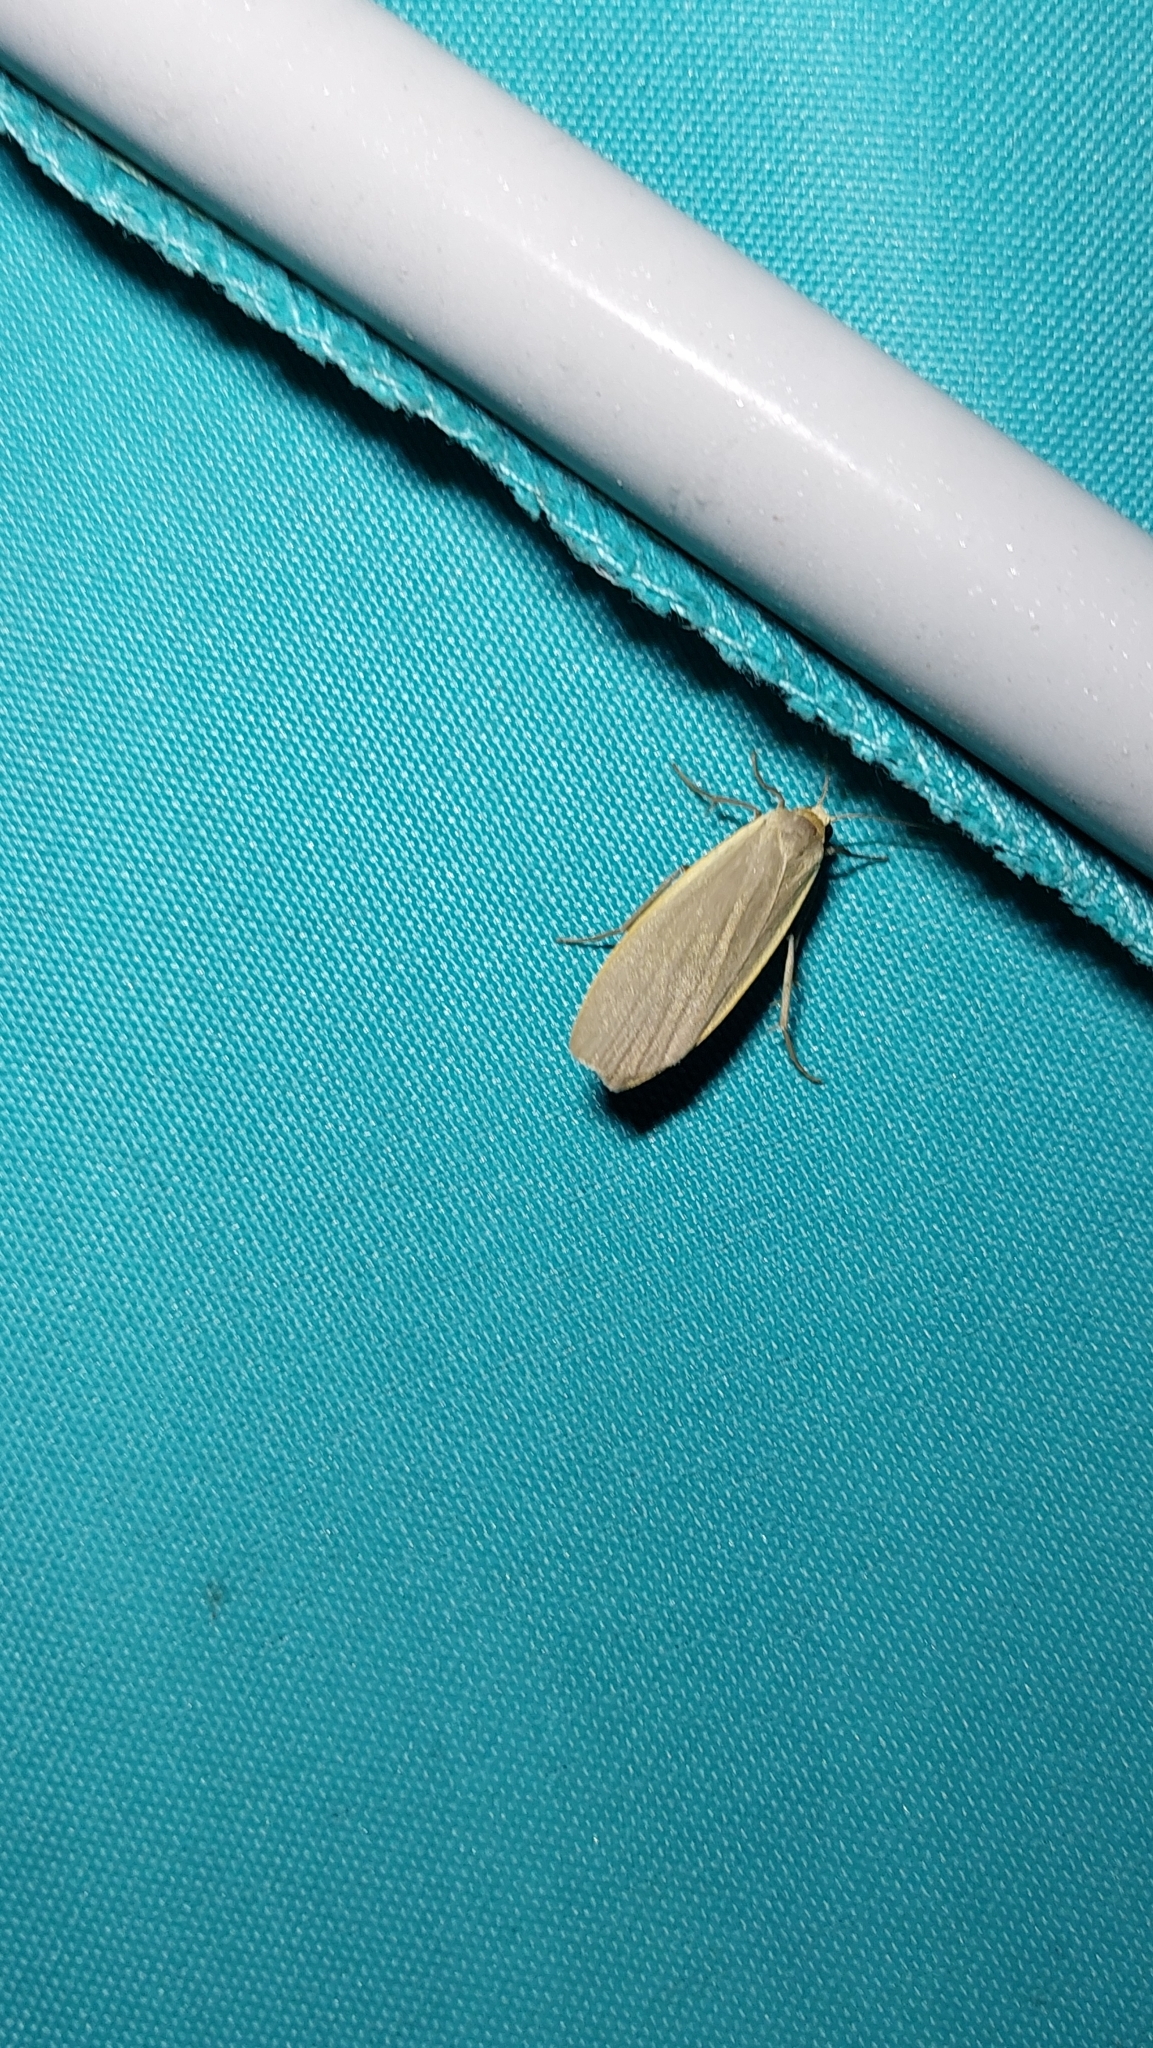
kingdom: Animalia
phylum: Arthropoda
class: Insecta
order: Lepidoptera
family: Erebidae
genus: Collita
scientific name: Collita griseola
